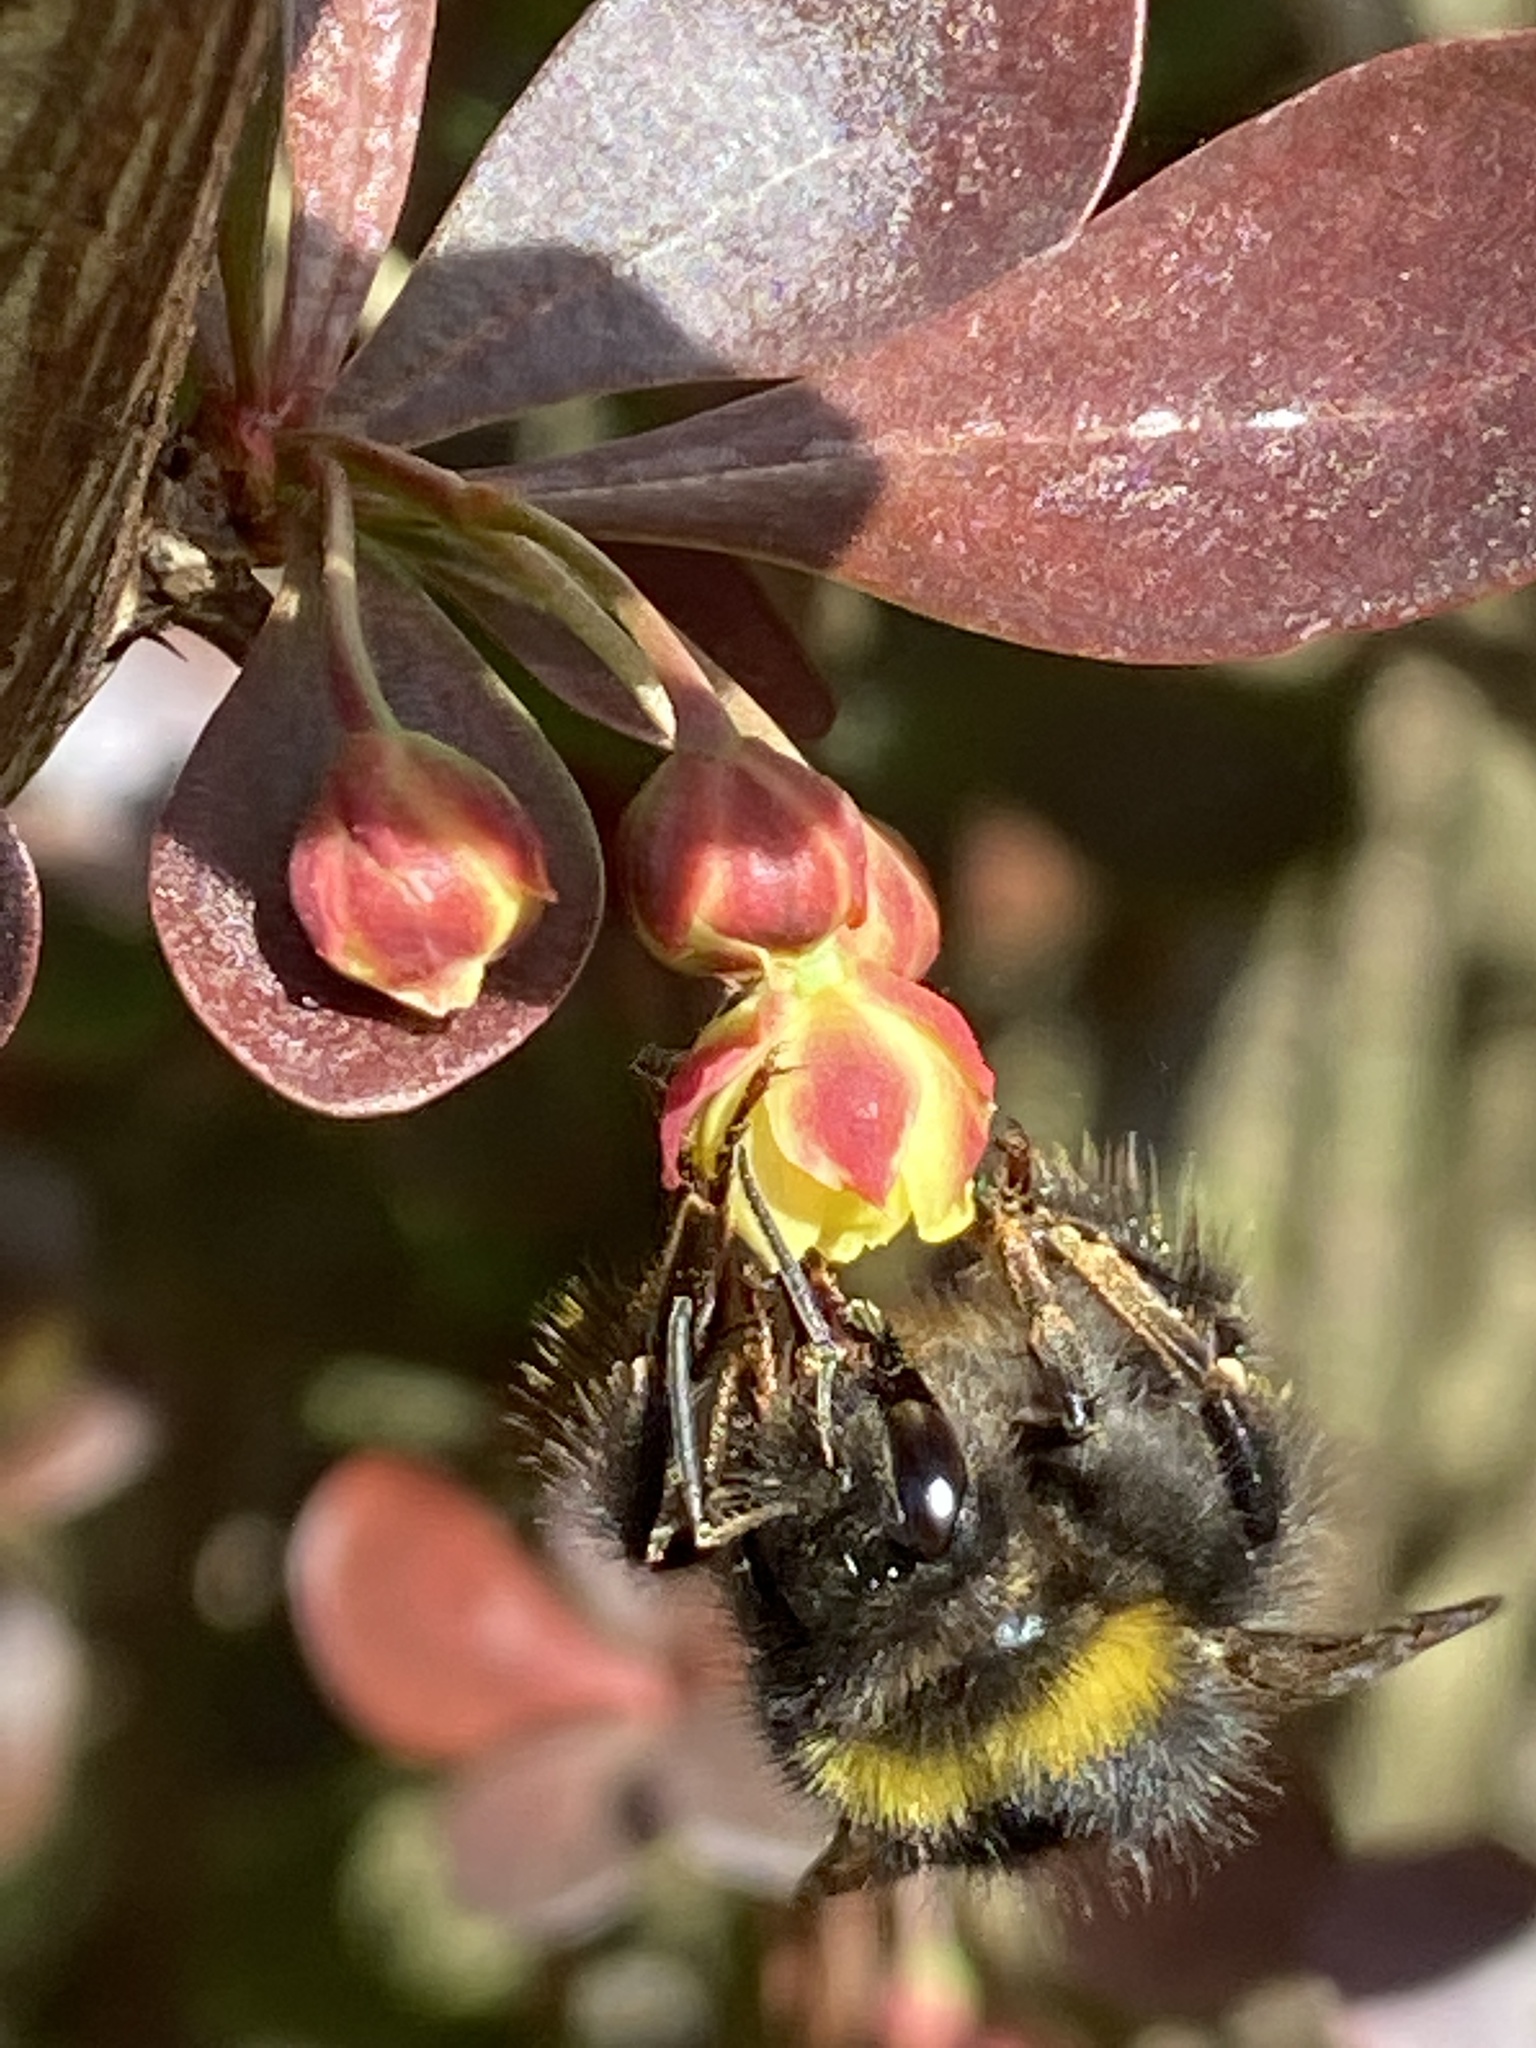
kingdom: Animalia
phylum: Arthropoda
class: Insecta
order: Hymenoptera
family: Apidae
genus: Bombus
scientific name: Bombus pratorum
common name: Early humble-bee
